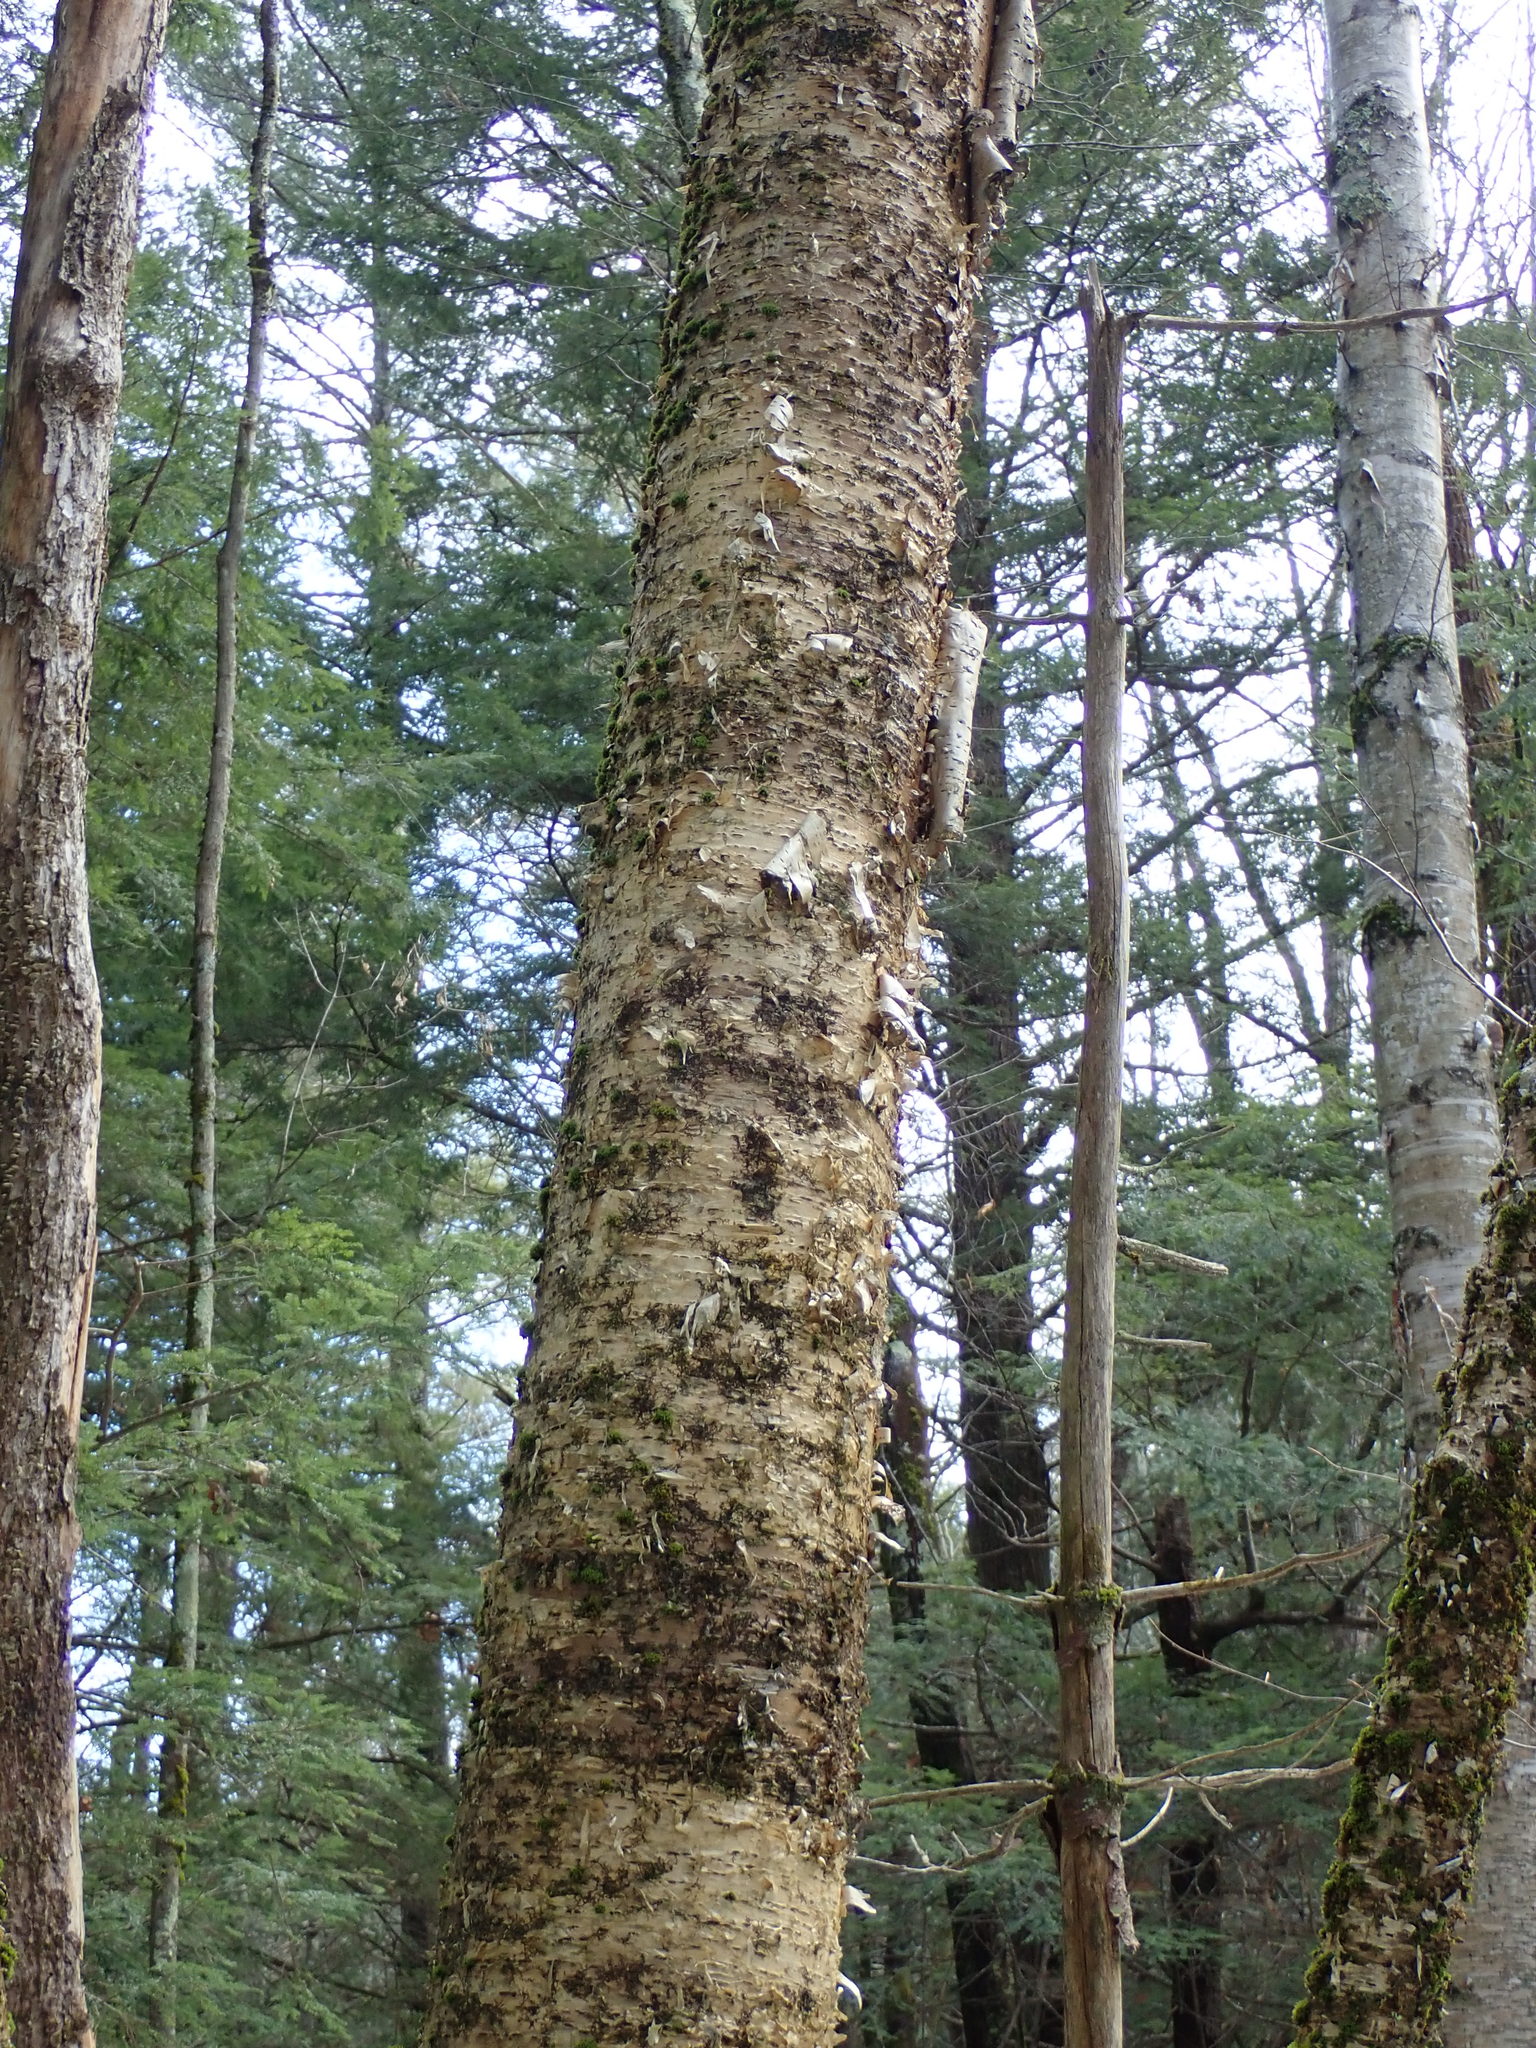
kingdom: Plantae
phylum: Tracheophyta
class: Magnoliopsida
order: Fagales
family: Betulaceae
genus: Betula
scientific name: Betula alleghaniensis
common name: Yellow birch
